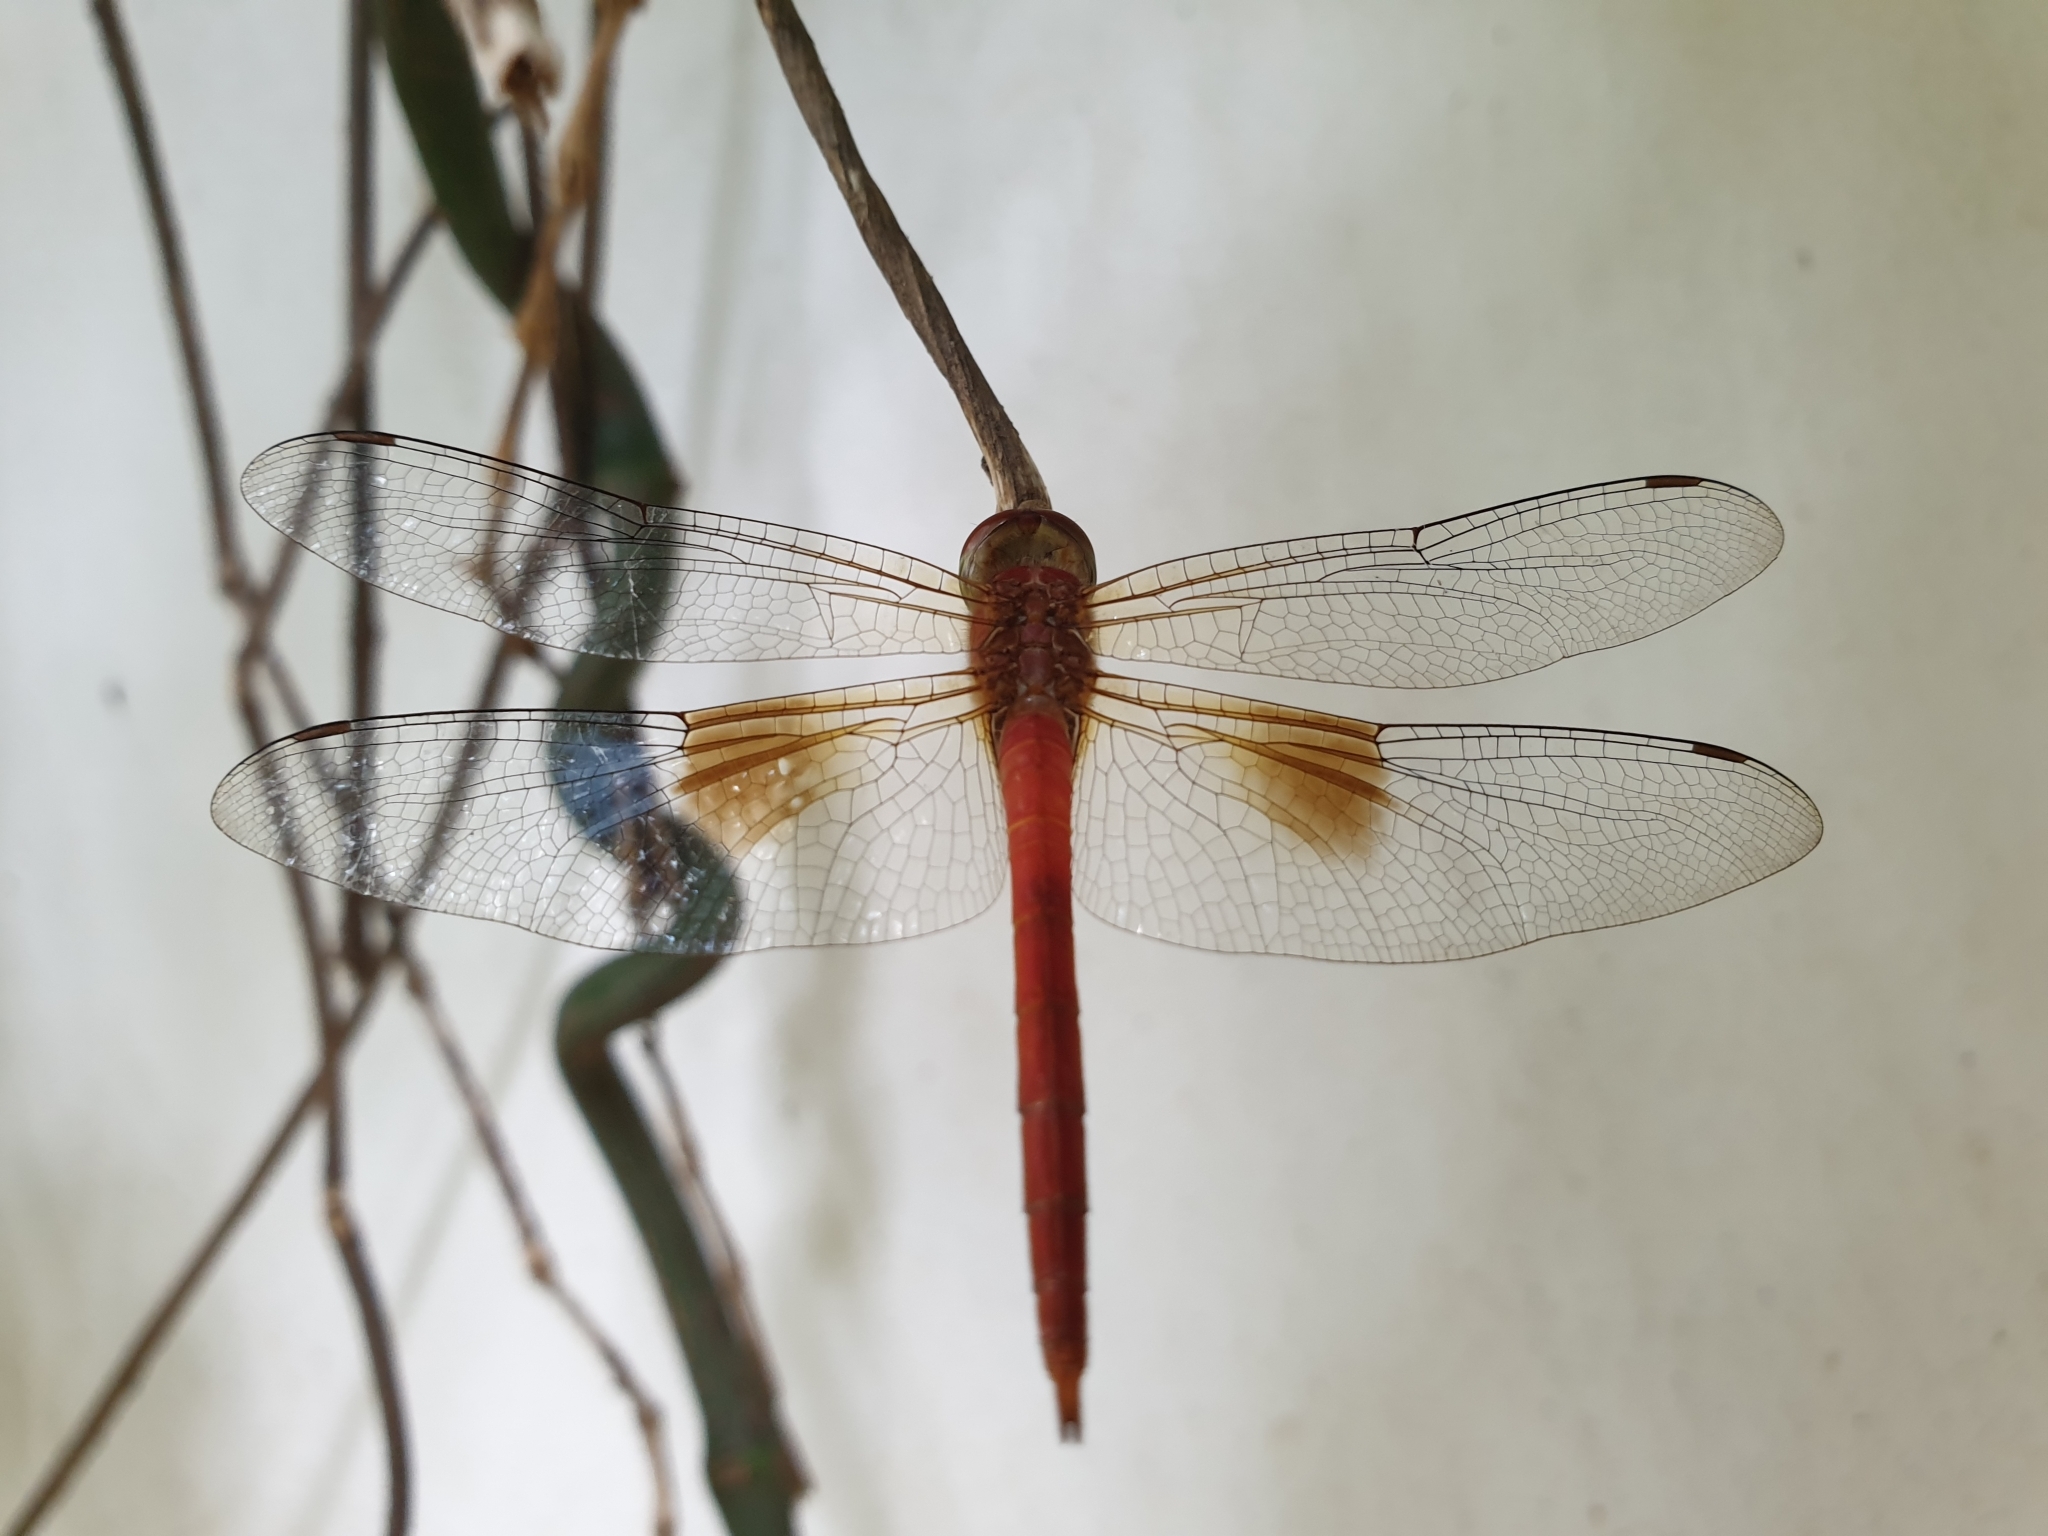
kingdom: Animalia
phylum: Arthropoda
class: Insecta
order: Odonata
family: Libellulidae
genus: Tholymis
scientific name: Tholymis tillarga
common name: Coral-tailed cloud wing
